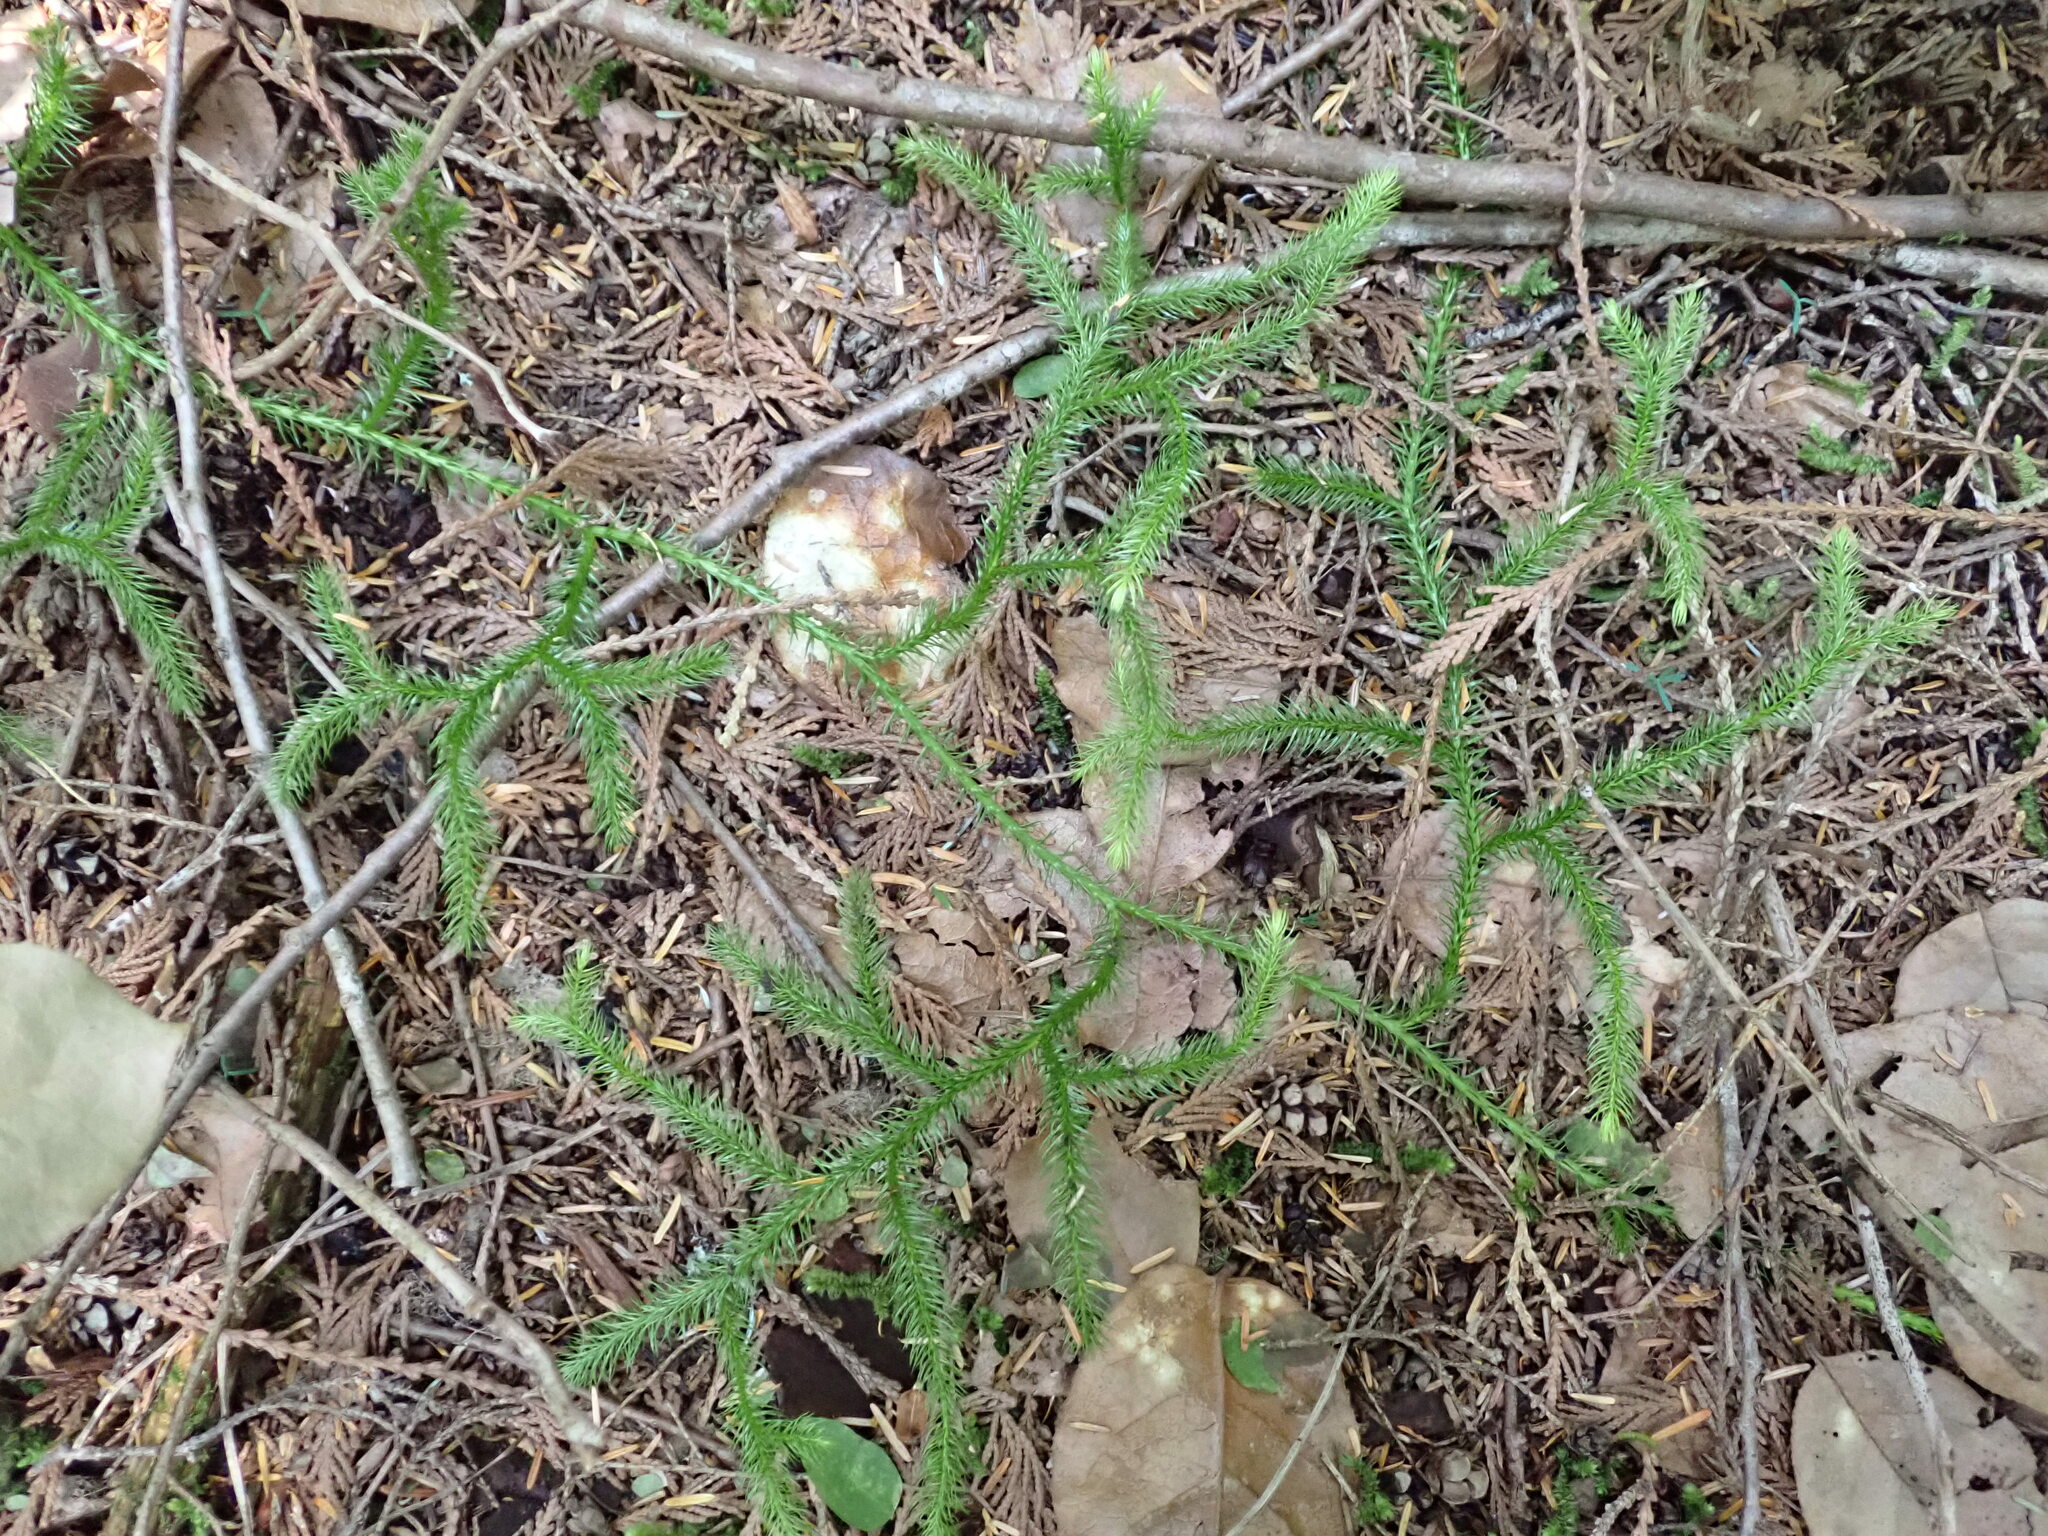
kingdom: Plantae
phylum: Tracheophyta
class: Lycopodiopsida
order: Lycopodiales
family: Lycopodiaceae
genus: Lycopodium
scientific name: Lycopodium clavatum
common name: Stag's-horn clubmoss
